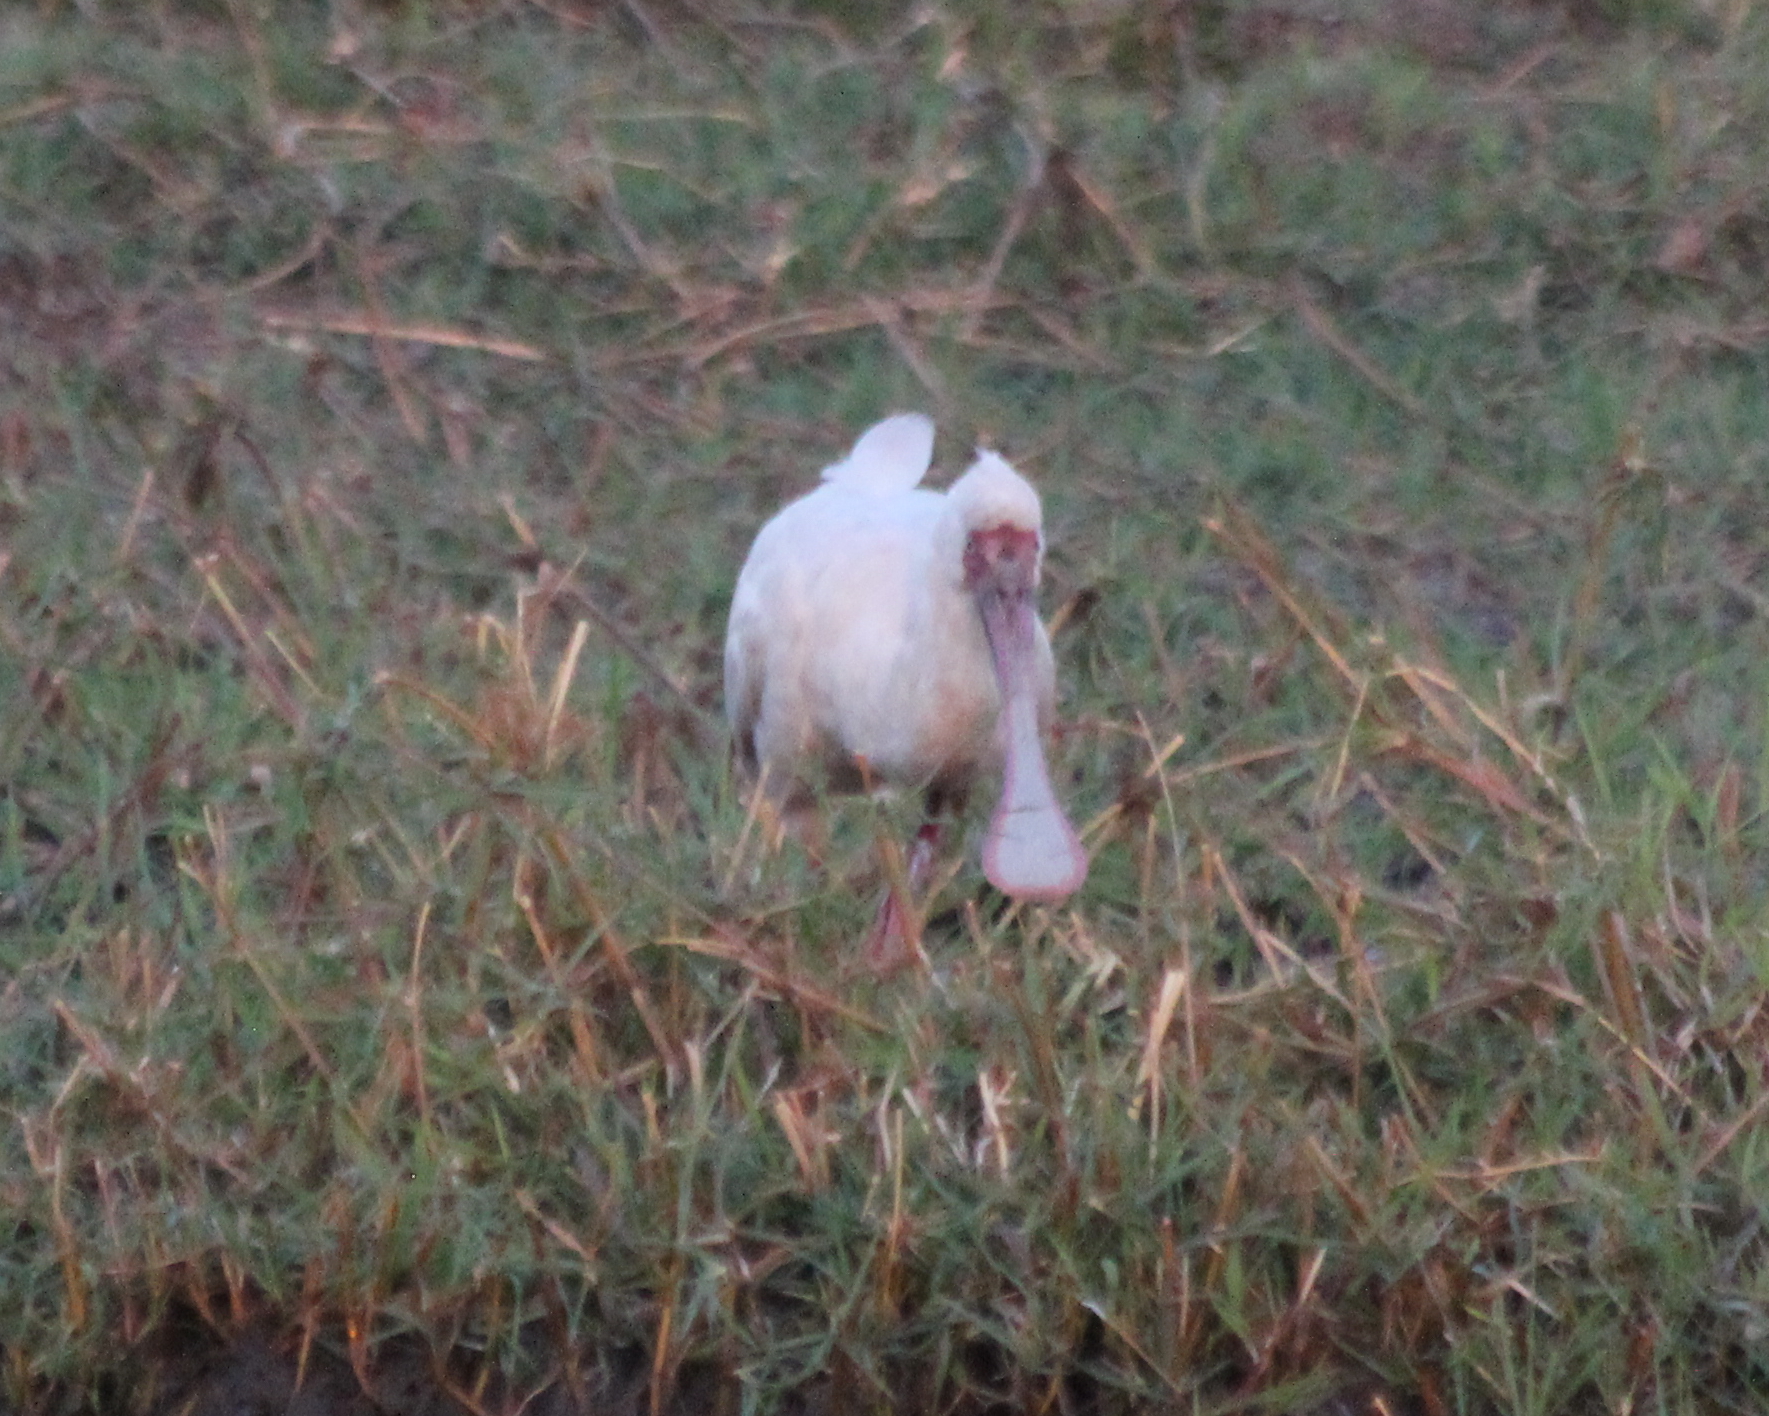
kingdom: Animalia
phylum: Chordata
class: Aves
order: Pelecaniformes
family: Threskiornithidae
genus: Platalea
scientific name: Platalea alba
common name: African spoonbill
